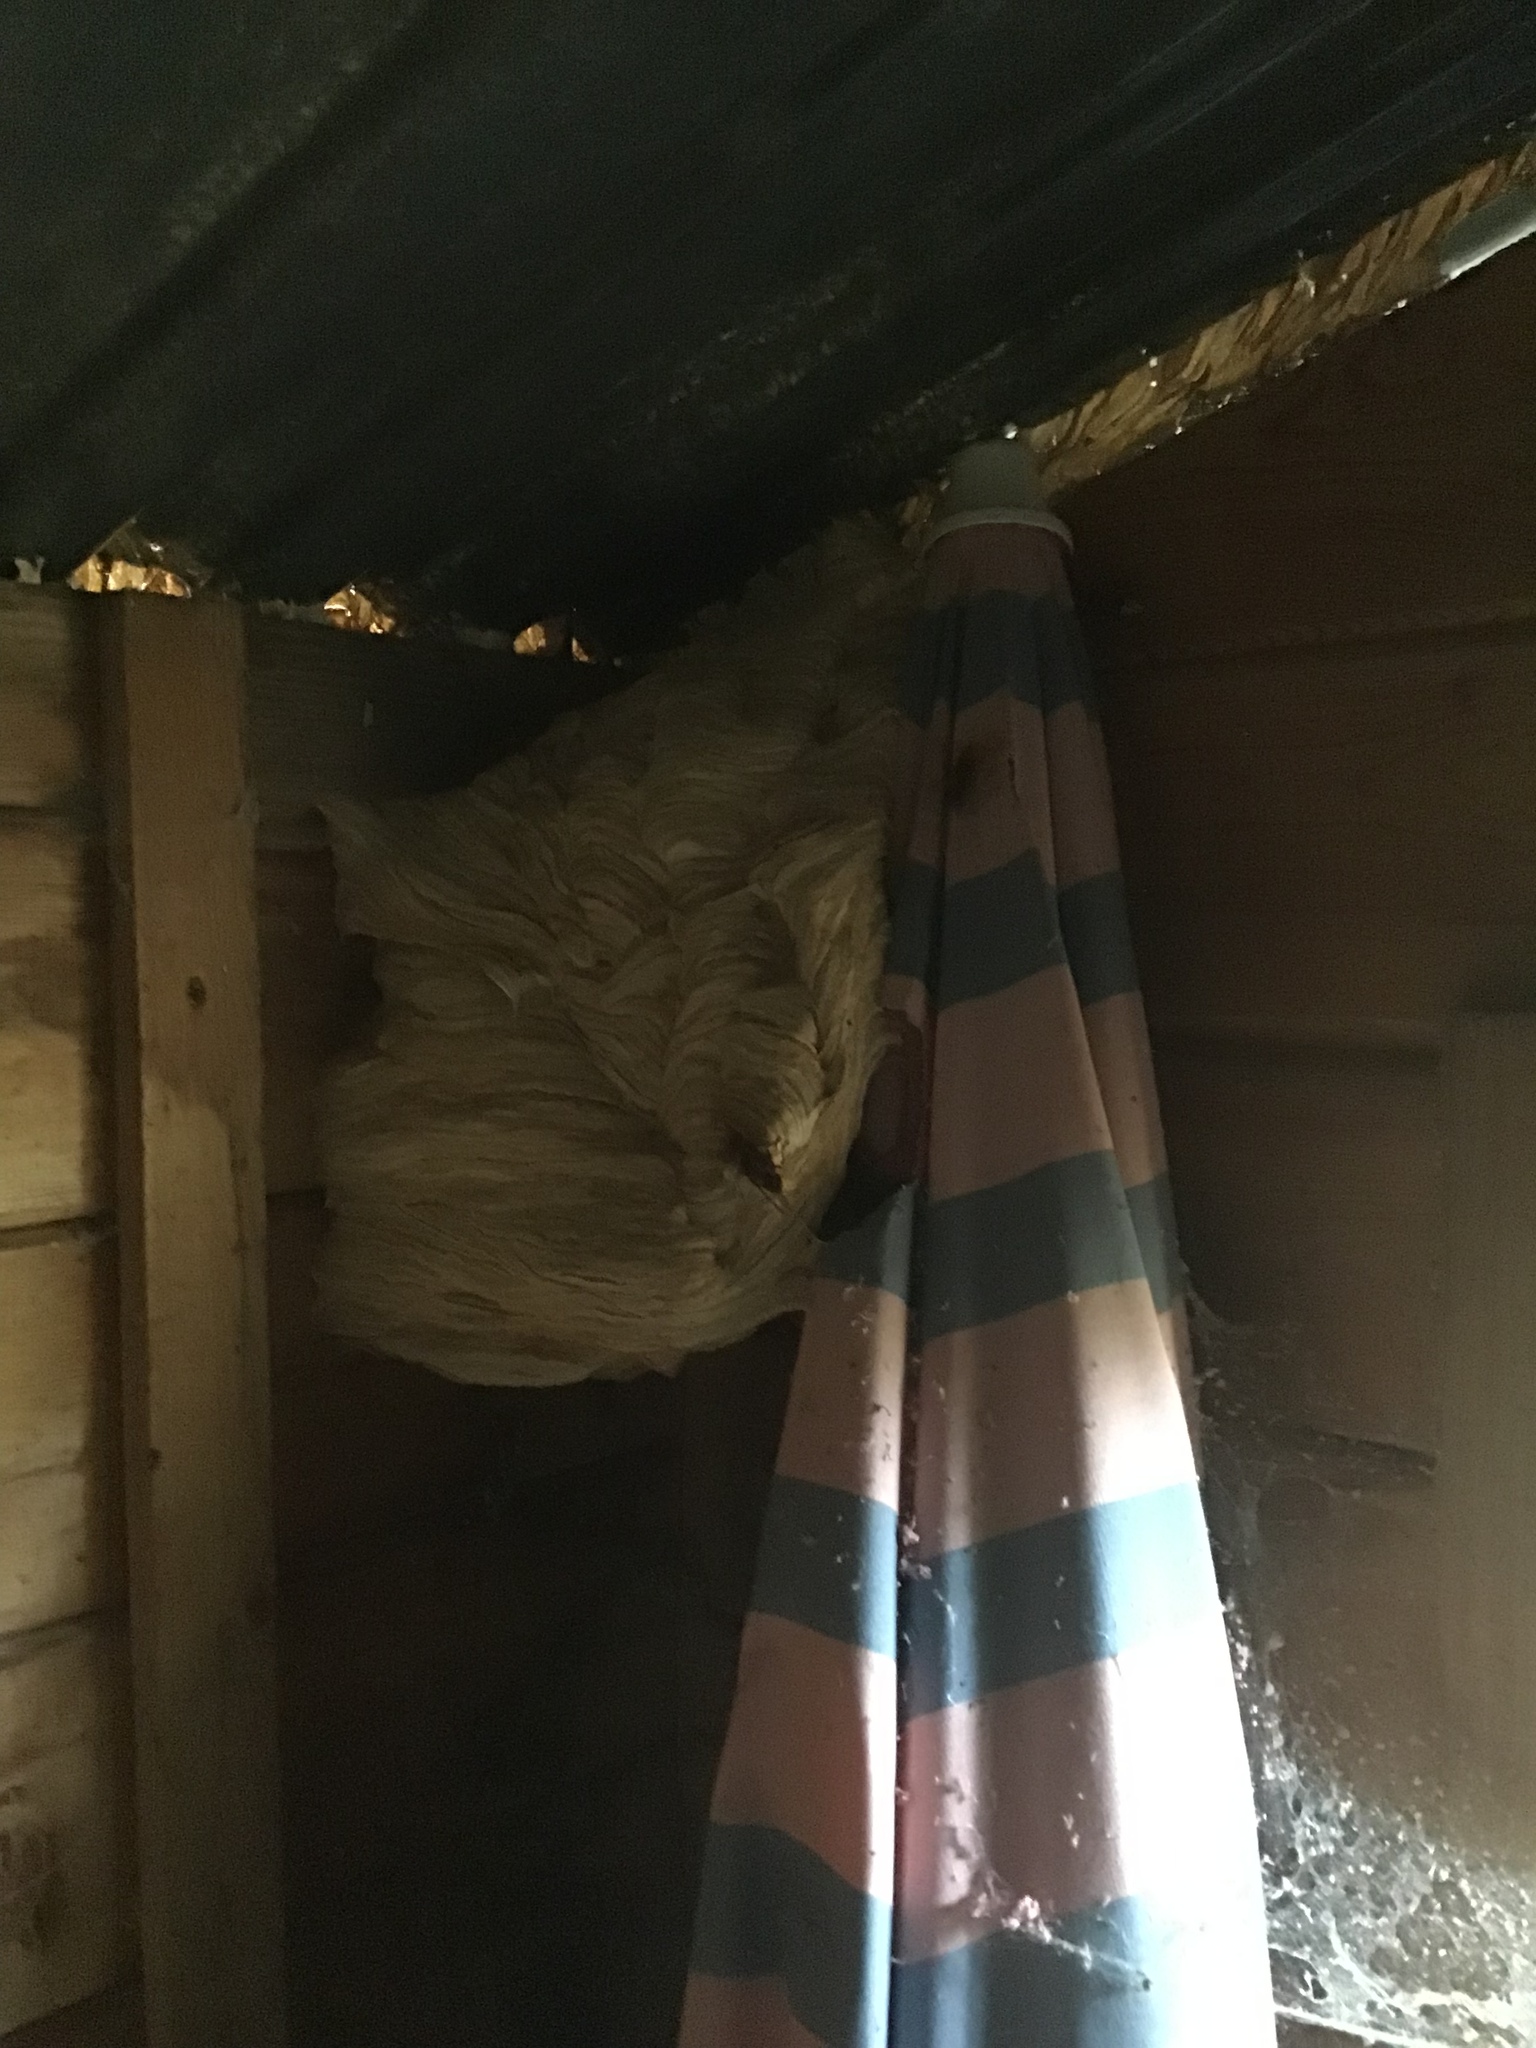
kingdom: Animalia
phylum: Arthropoda
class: Insecta
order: Hymenoptera
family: Vespidae
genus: Vespa
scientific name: Vespa crabro
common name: Hornet
